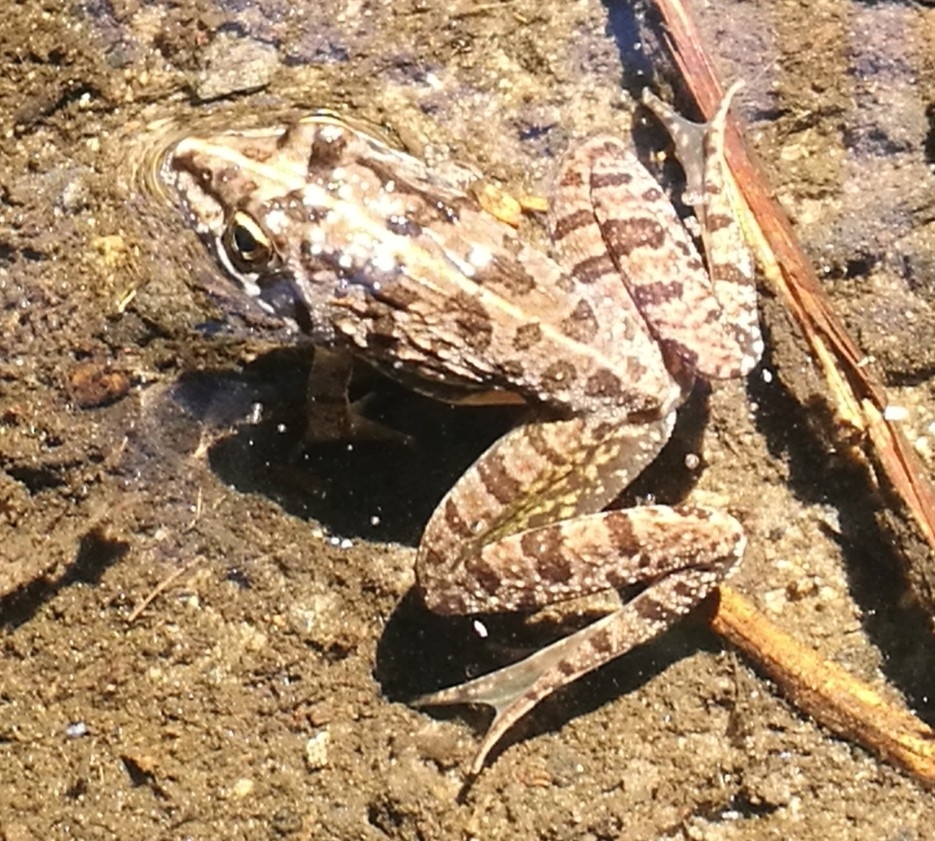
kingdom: Animalia
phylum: Chordata
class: Amphibia
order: Anura
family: Pyxicephalidae
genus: Amietia
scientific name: Amietia fuscigula
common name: Cape rana
